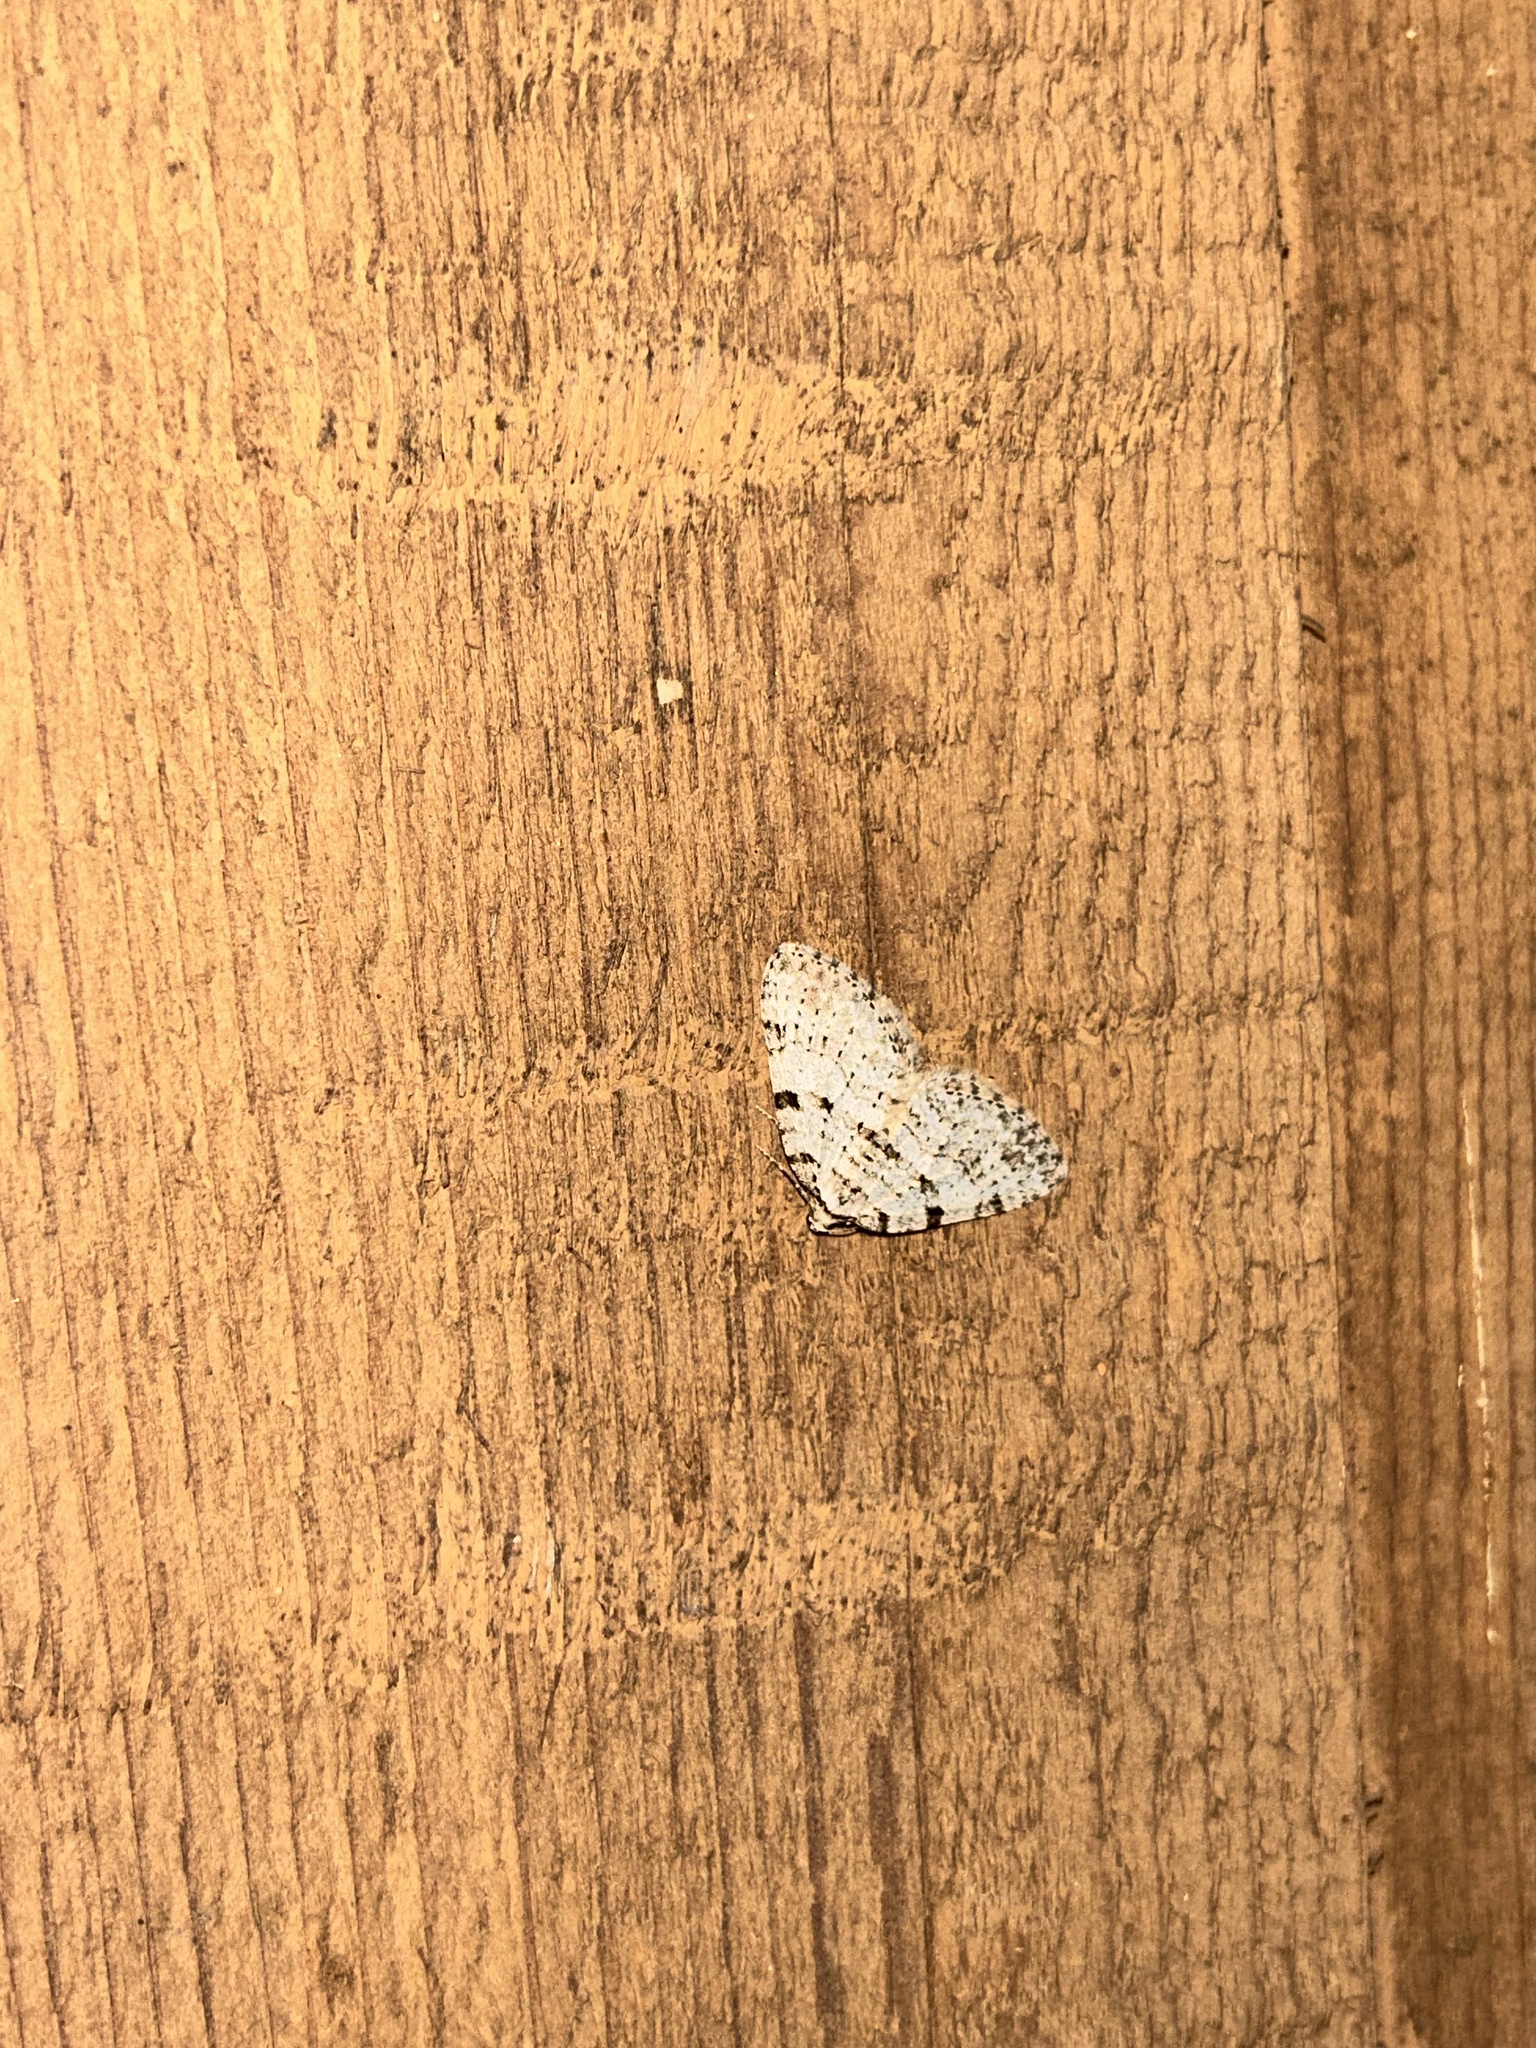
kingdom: Animalia
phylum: Arthropoda
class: Insecta
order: Lepidoptera
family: Geometridae
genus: Perizoma
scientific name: Perizoma curvilinea
